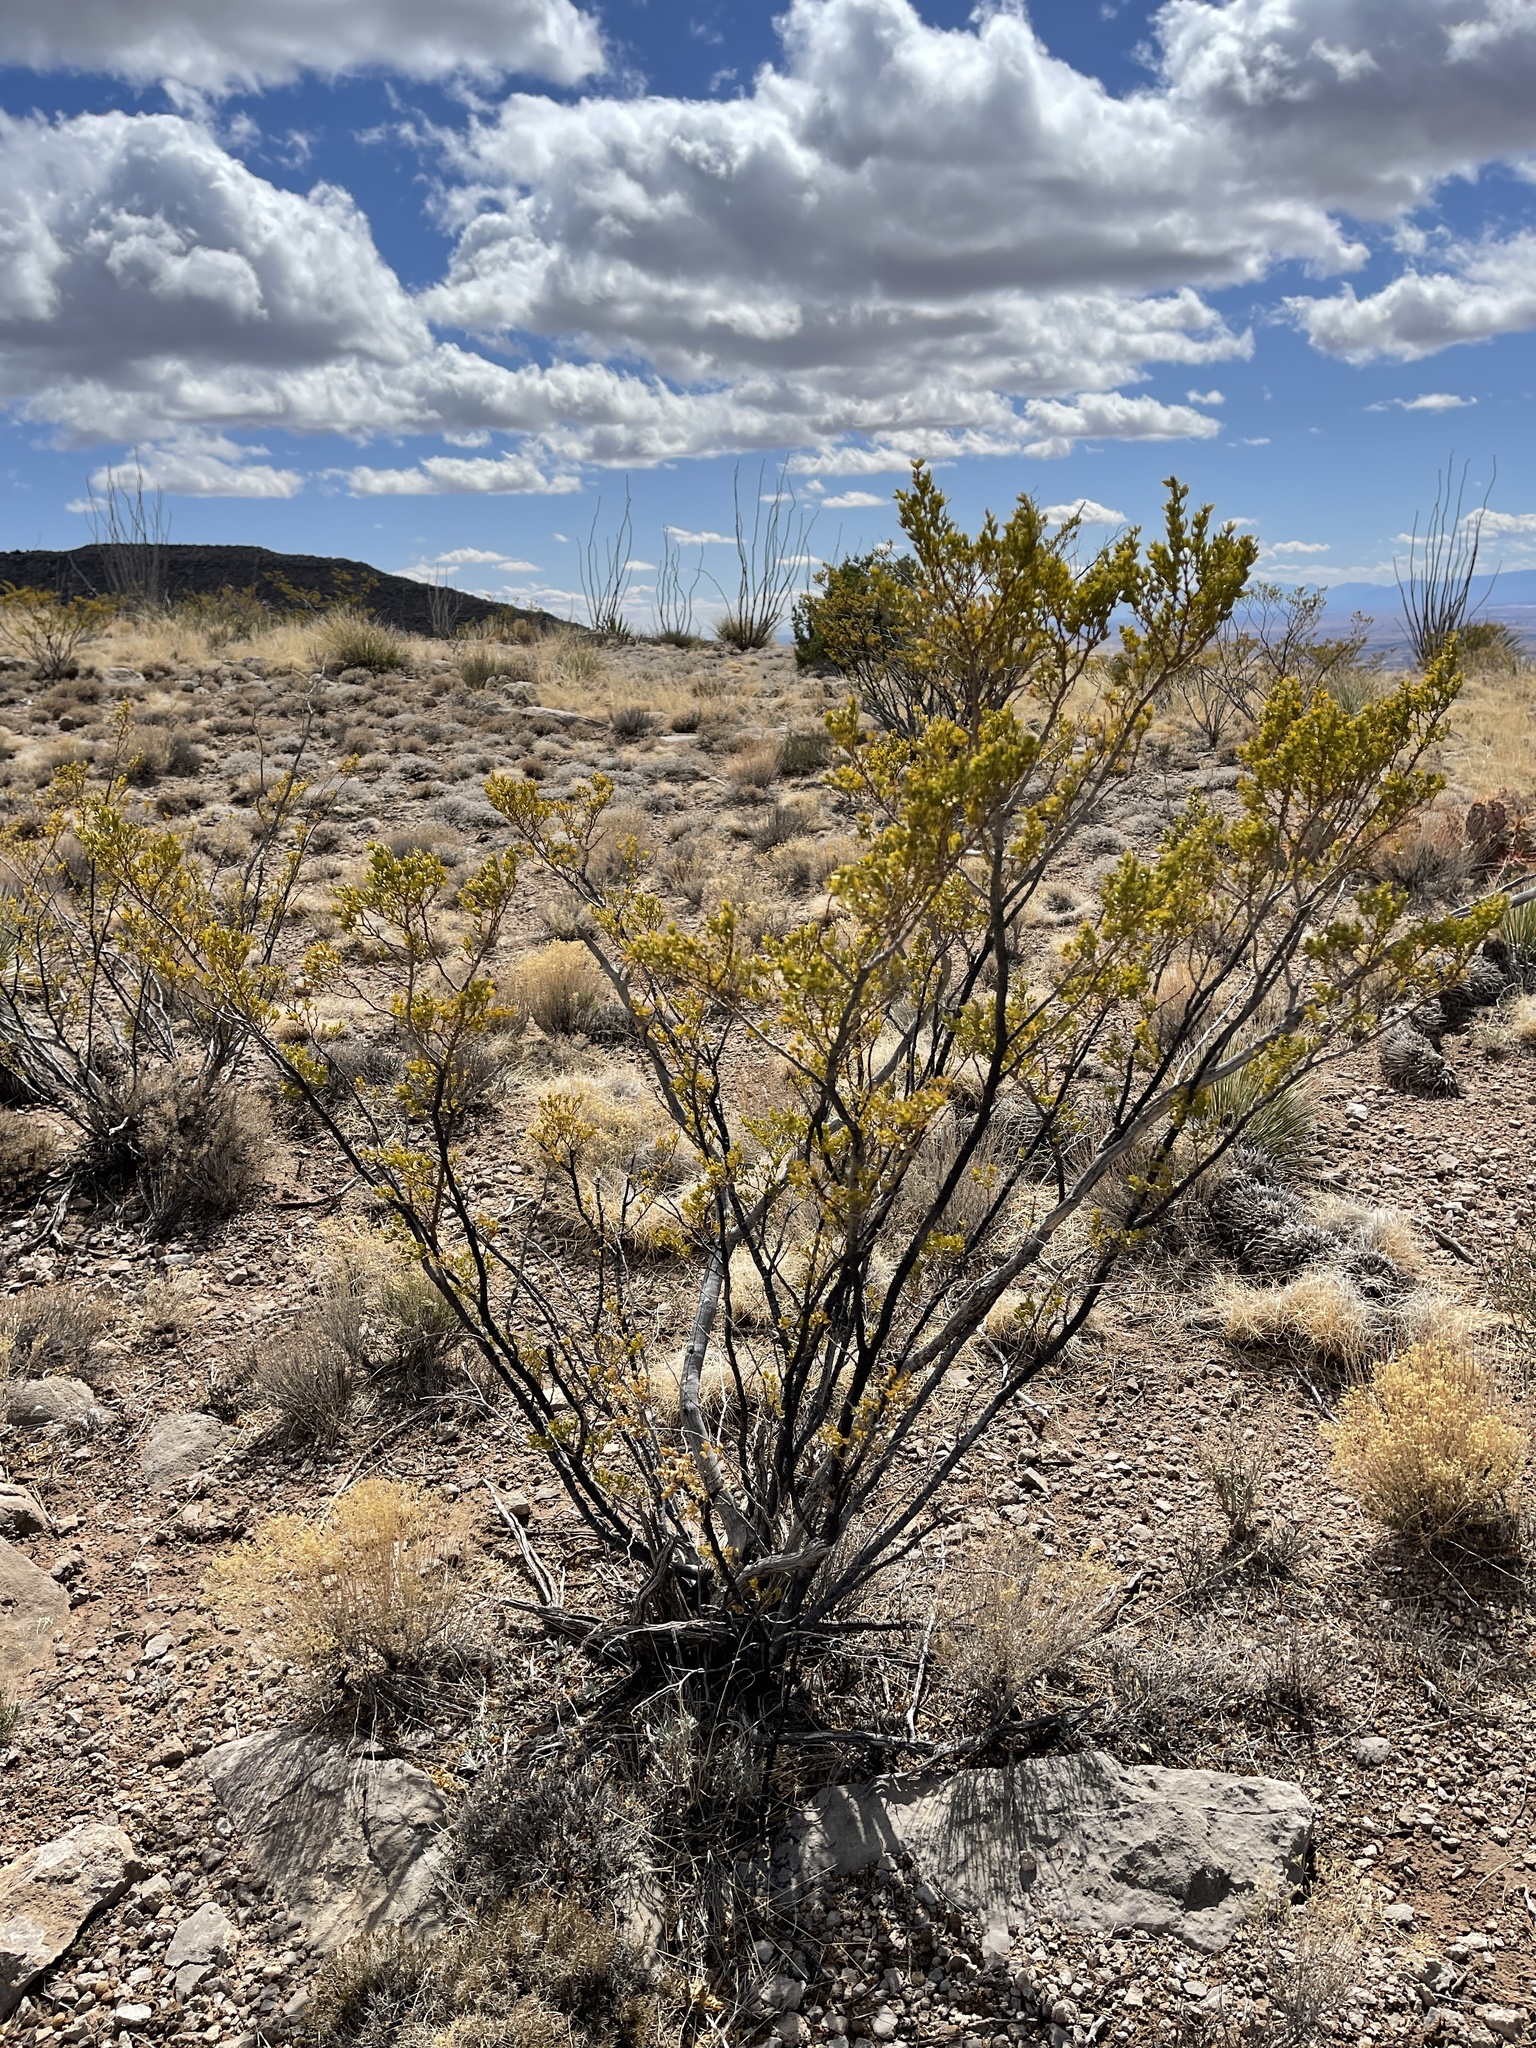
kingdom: Plantae
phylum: Tracheophyta
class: Magnoliopsida
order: Zygophyllales
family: Zygophyllaceae
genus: Larrea
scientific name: Larrea tridentata
